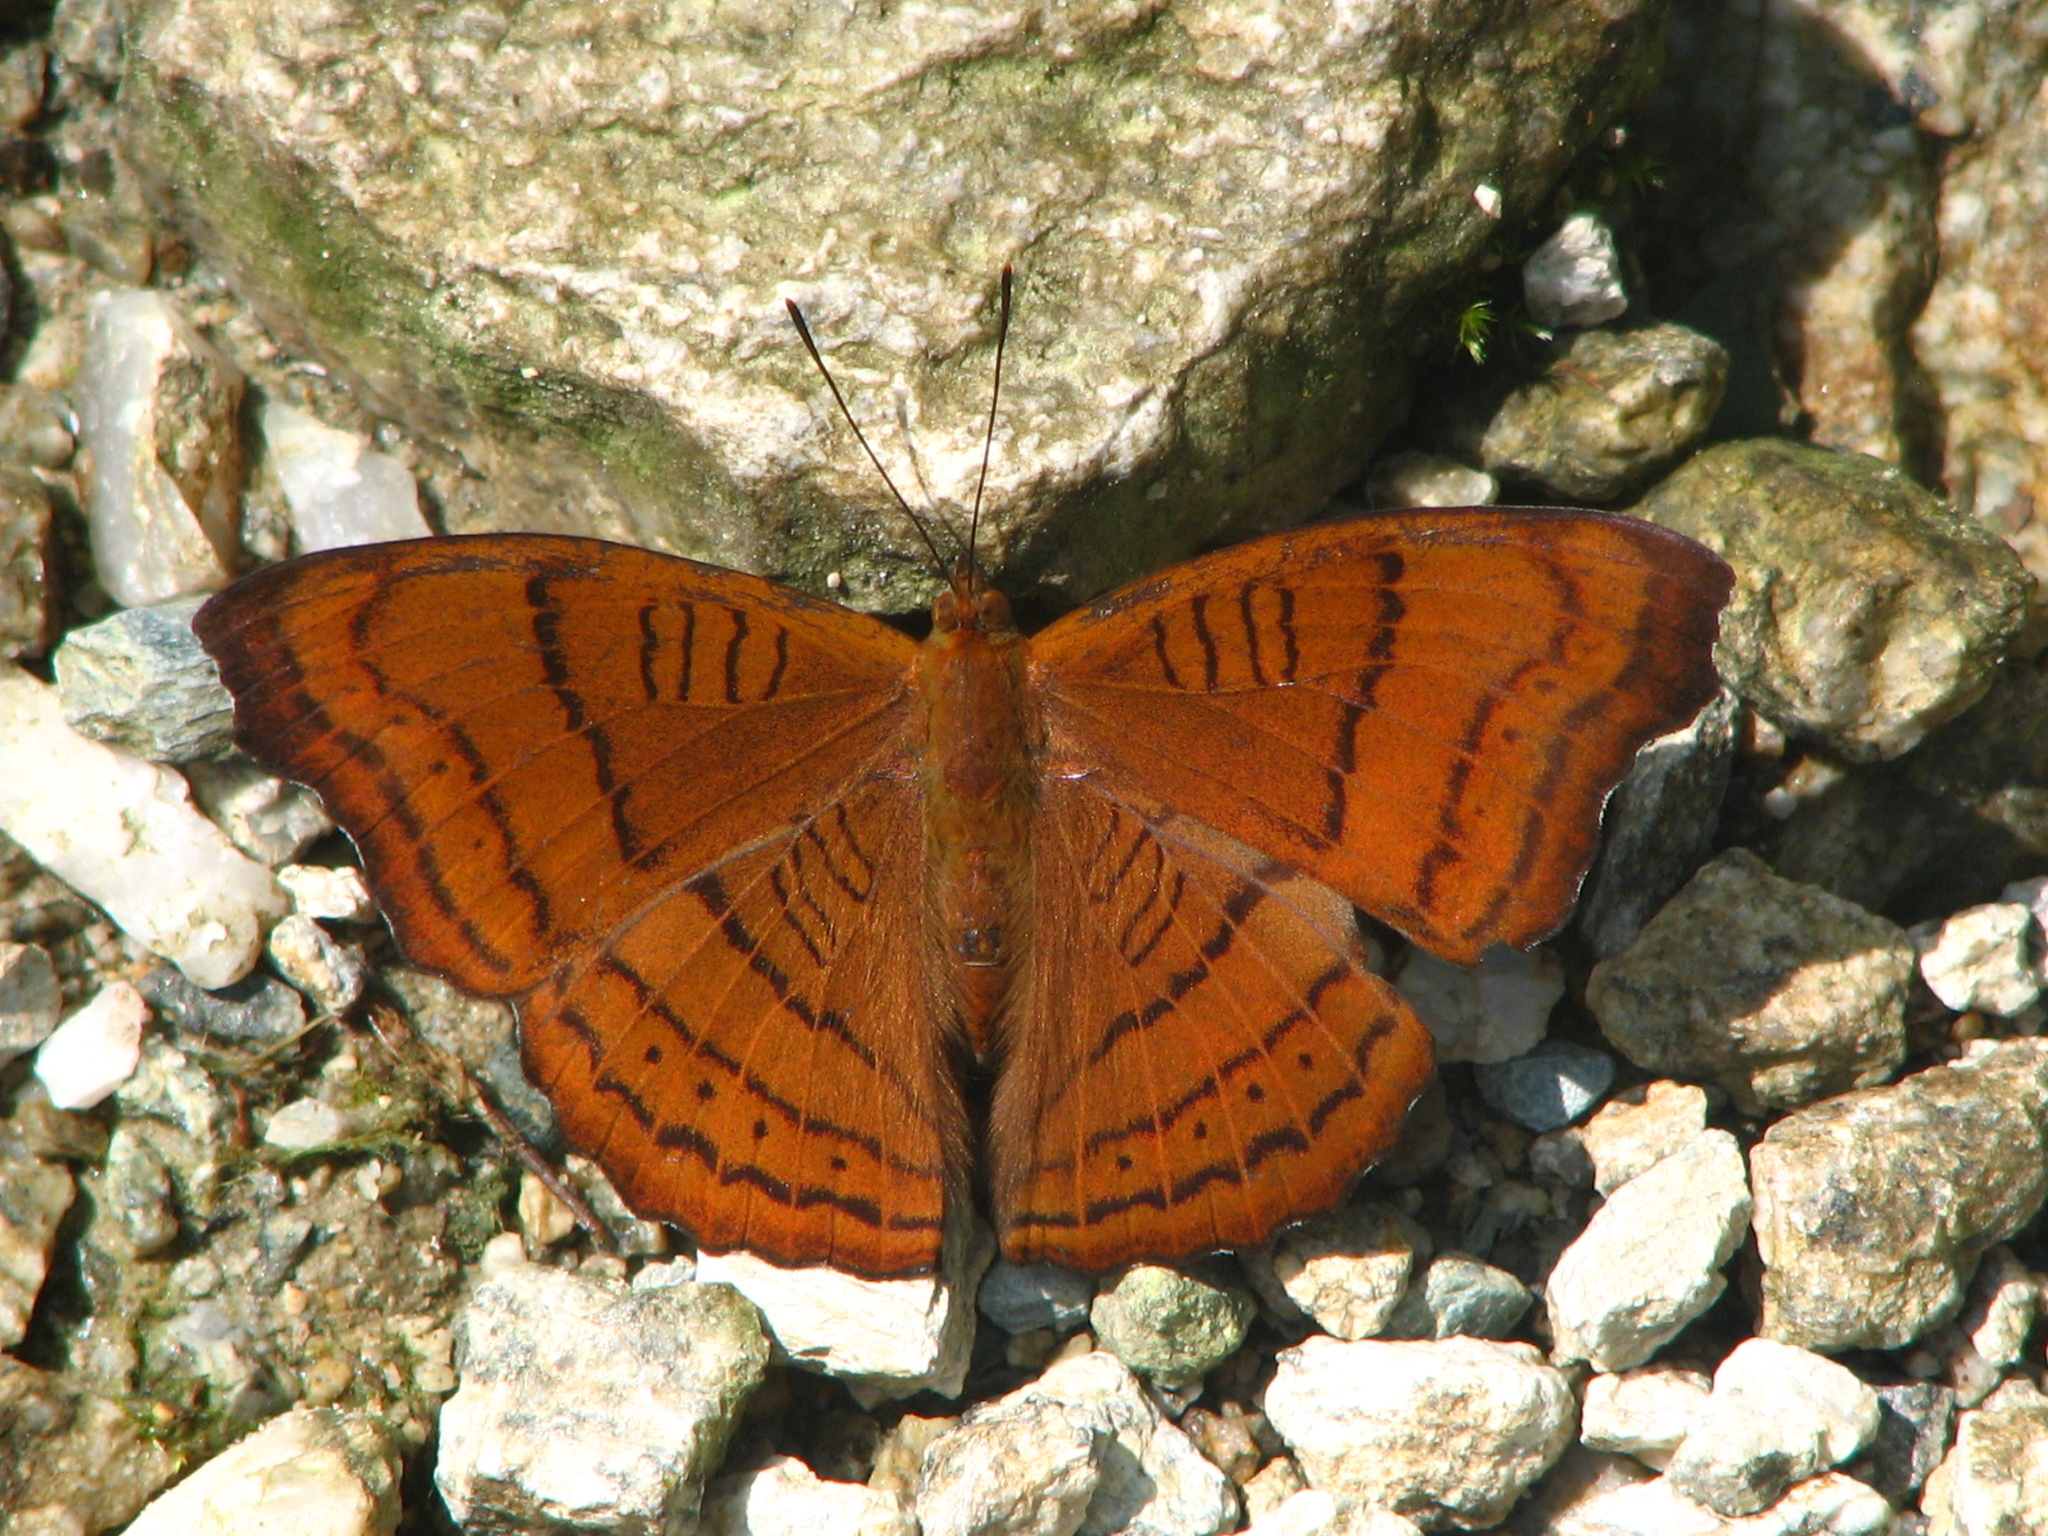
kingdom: Animalia
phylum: Arthropoda
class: Insecta
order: Lepidoptera
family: Nymphalidae
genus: Pseudergolis
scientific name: Pseudergolis wedah
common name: Tabby
